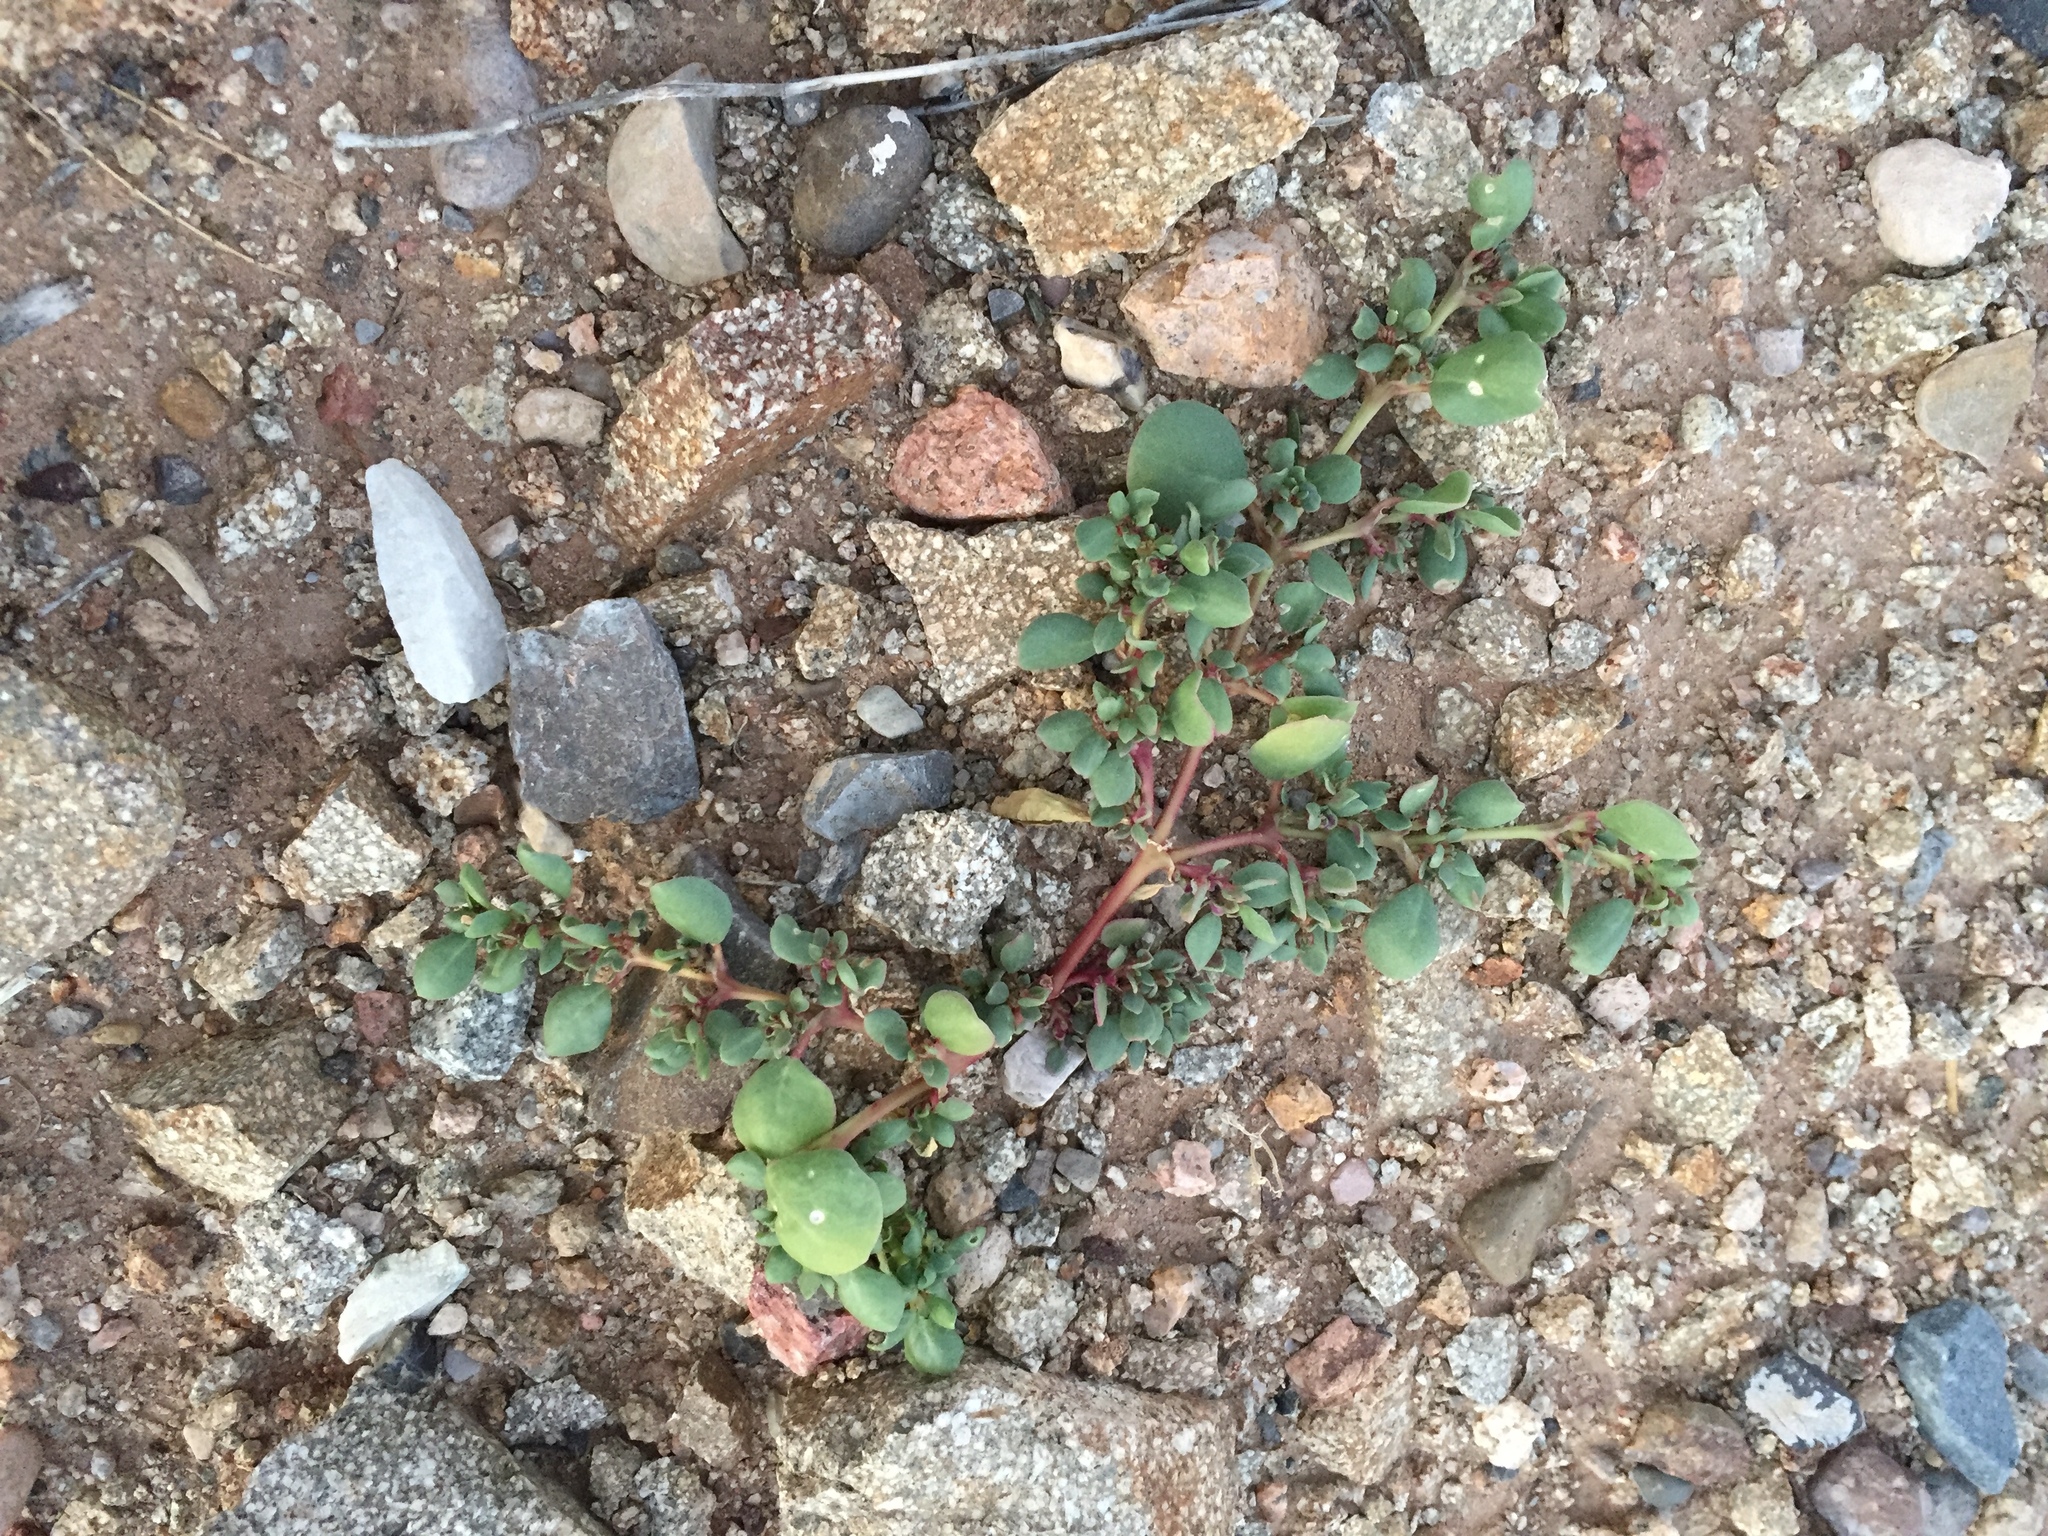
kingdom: Plantae
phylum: Tracheophyta
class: Magnoliopsida
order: Caryophyllales
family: Aizoaceae
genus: Trianthema
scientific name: Trianthema portulacastrum
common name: Desert horsepurslane
